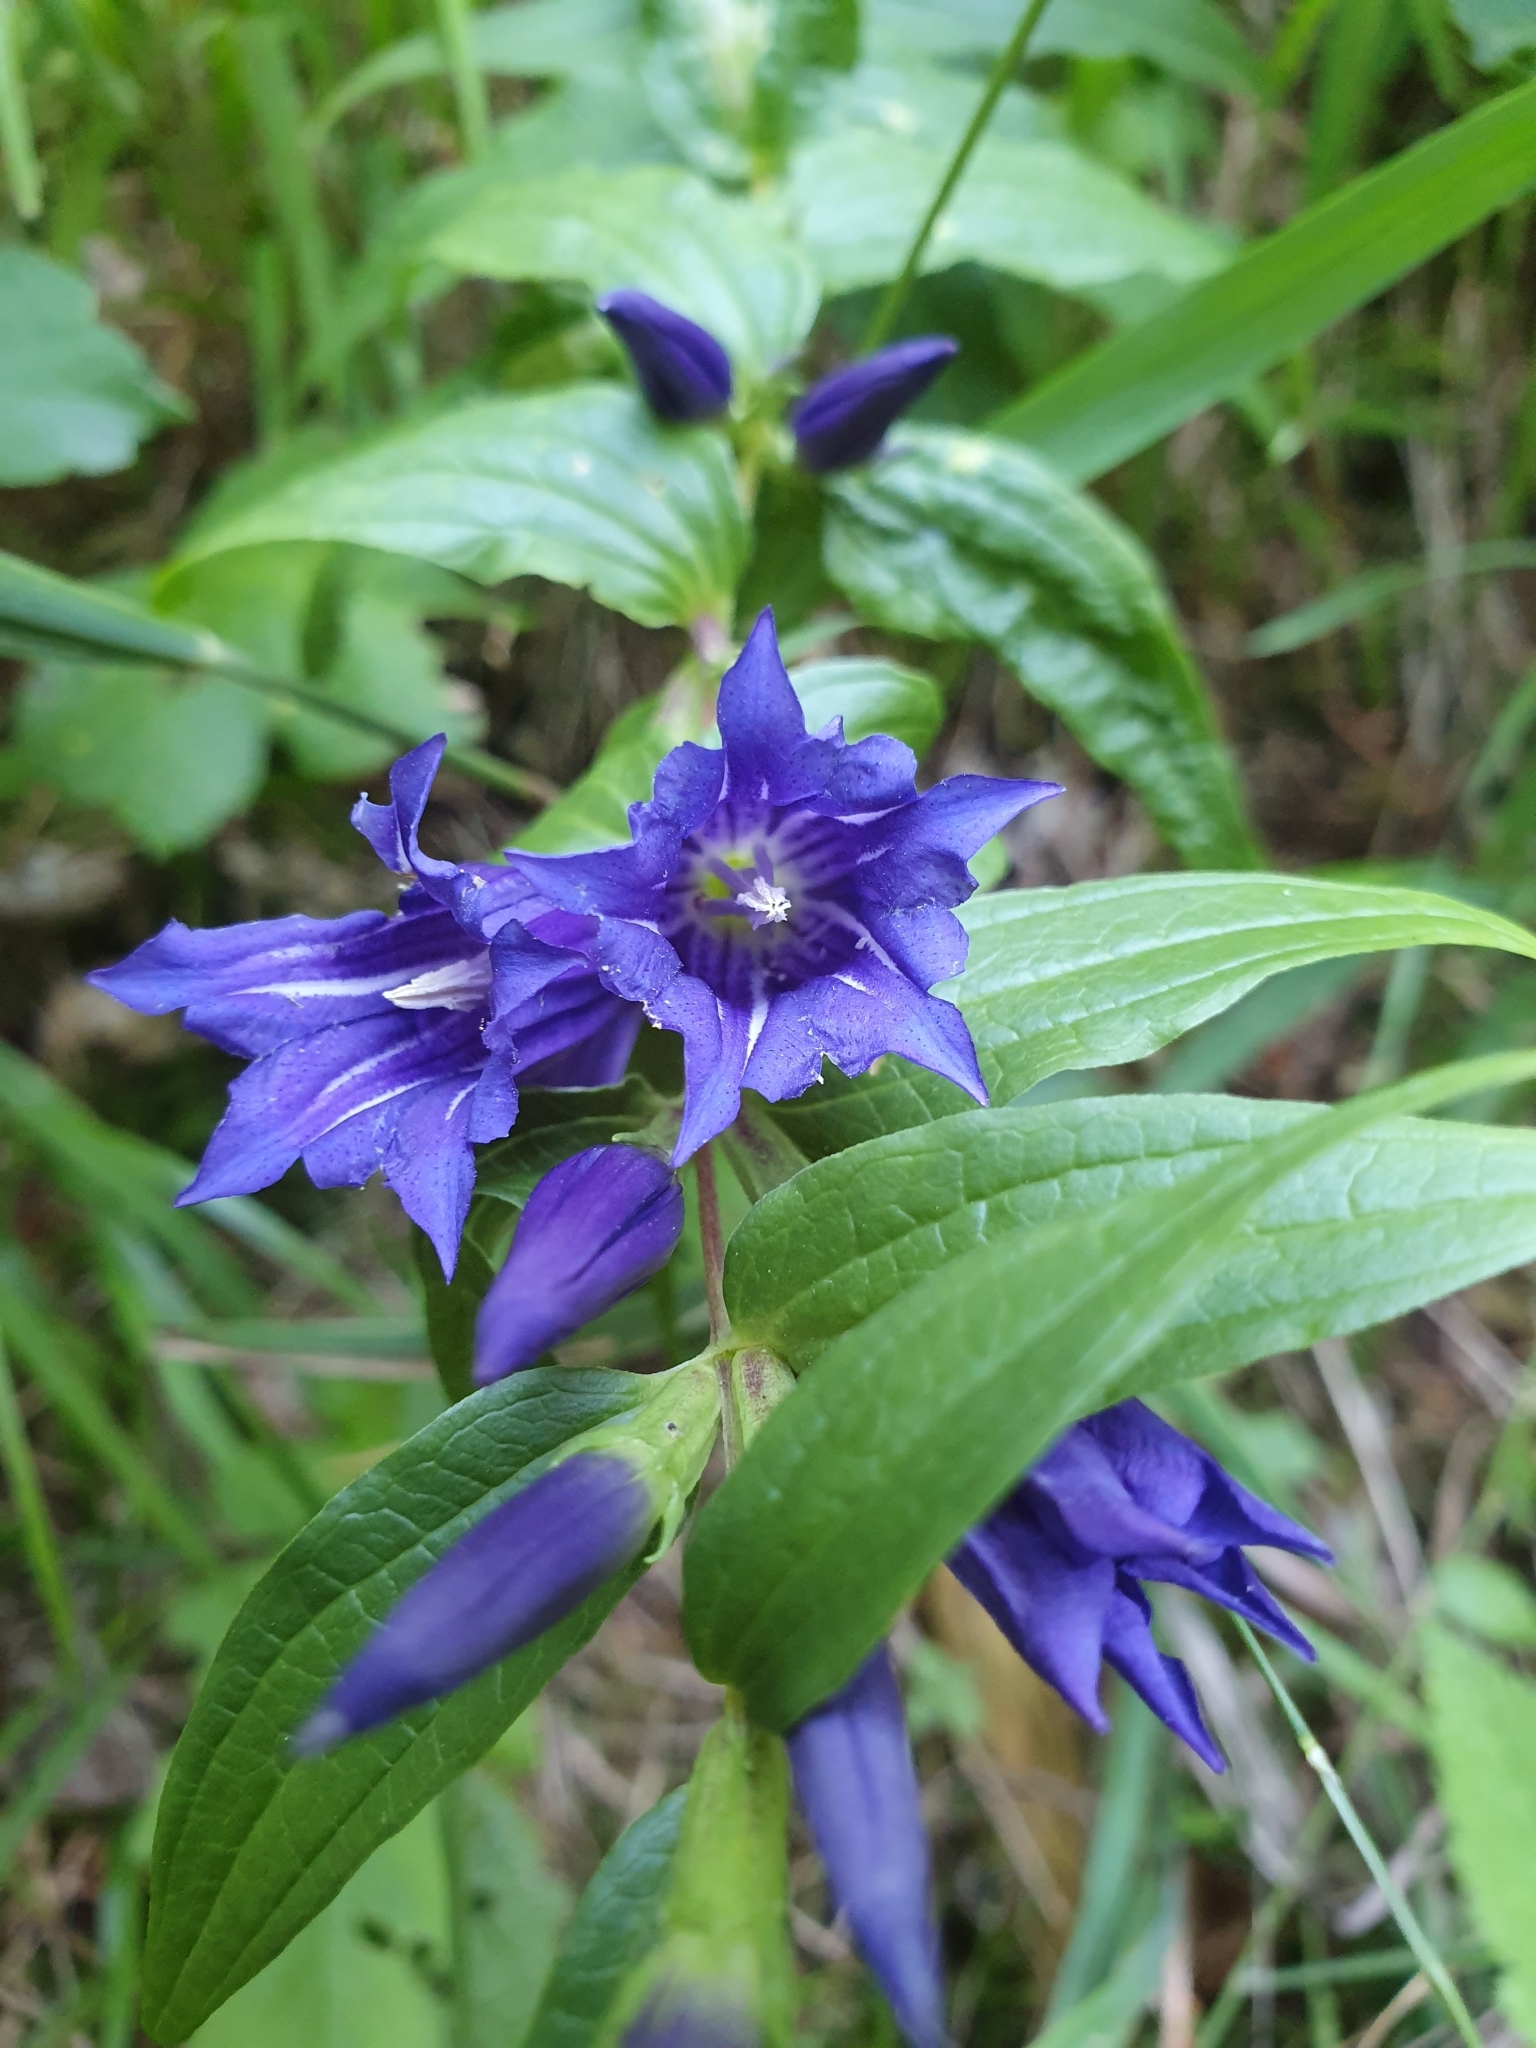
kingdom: Plantae
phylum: Tracheophyta
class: Magnoliopsida
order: Gentianales
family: Gentianaceae
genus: Gentiana
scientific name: Gentiana asclepiadea
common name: Willow gentian
